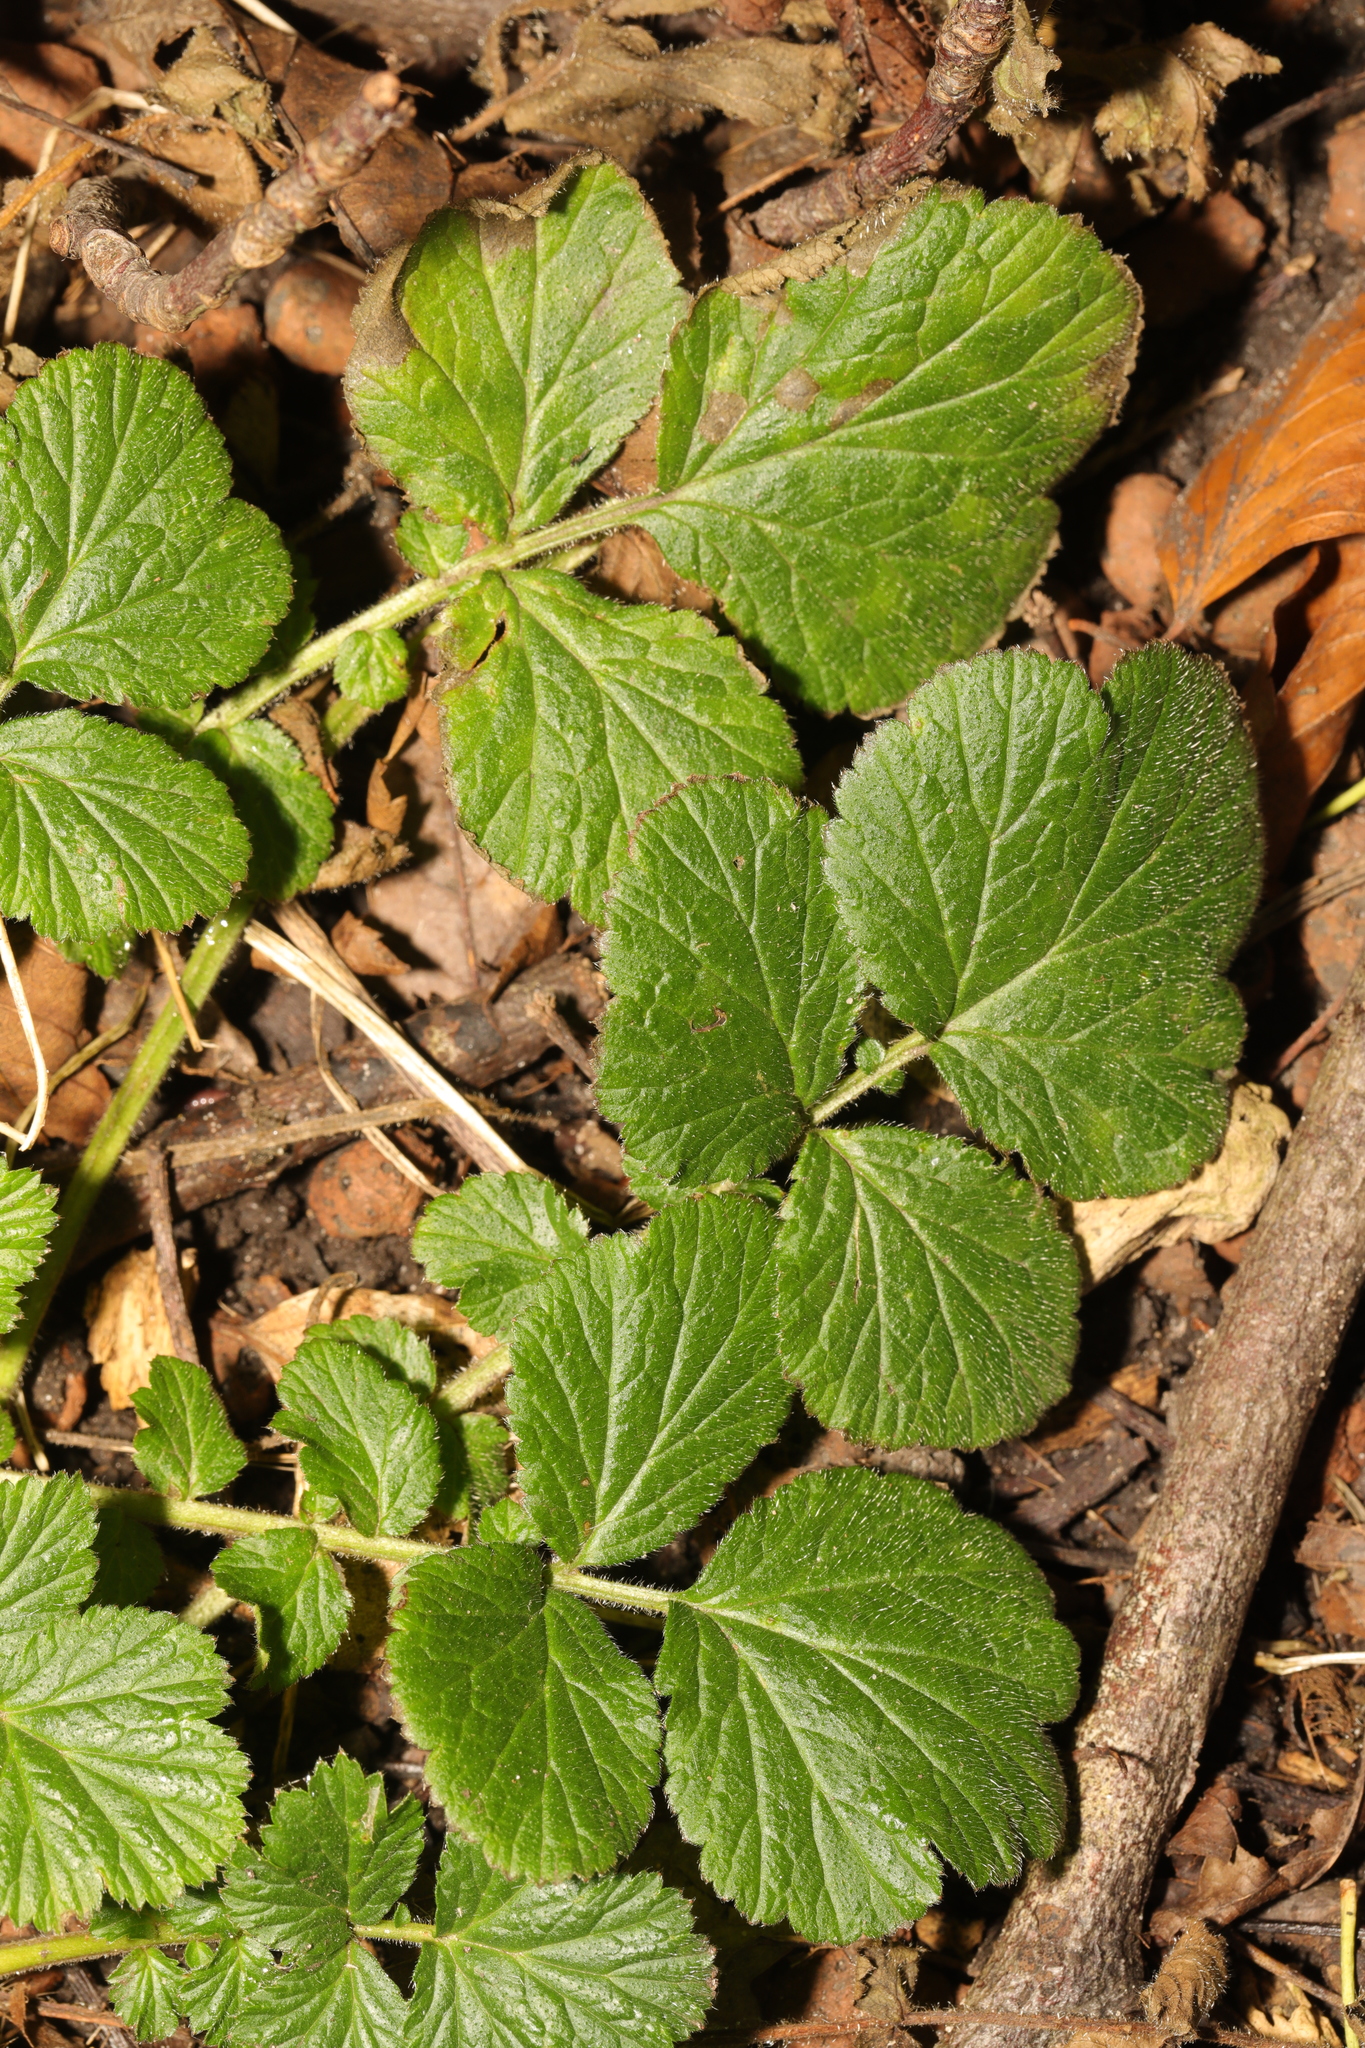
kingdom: Plantae
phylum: Tracheophyta
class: Magnoliopsida
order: Rosales
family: Rosaceae
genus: Geum
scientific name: Geum urbanum
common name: Wood avens
